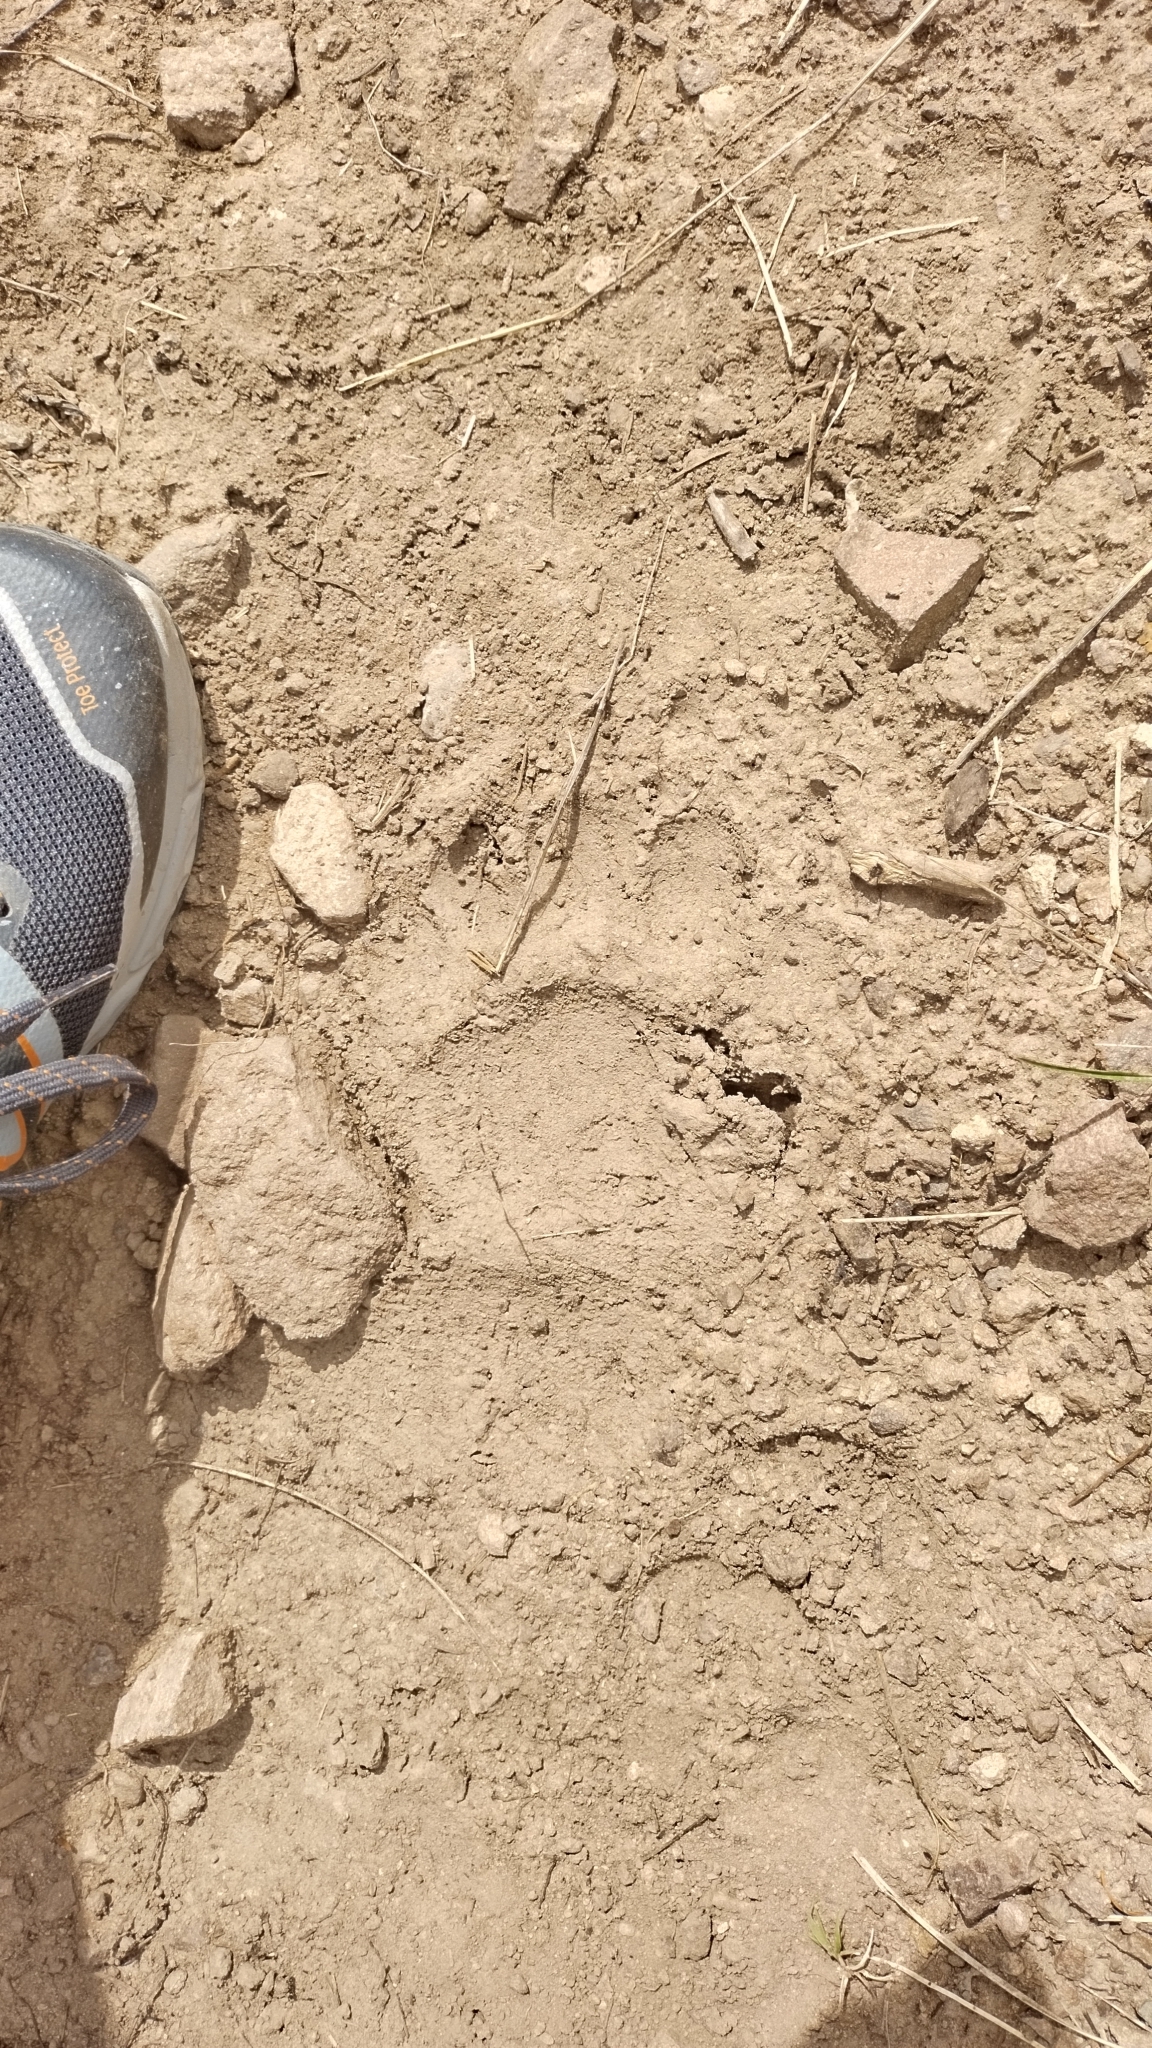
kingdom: Animalia
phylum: Chordata
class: Mammalia
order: Carnivora
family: Ursidae
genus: Ursus
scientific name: Ursus americanus
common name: American black bear
